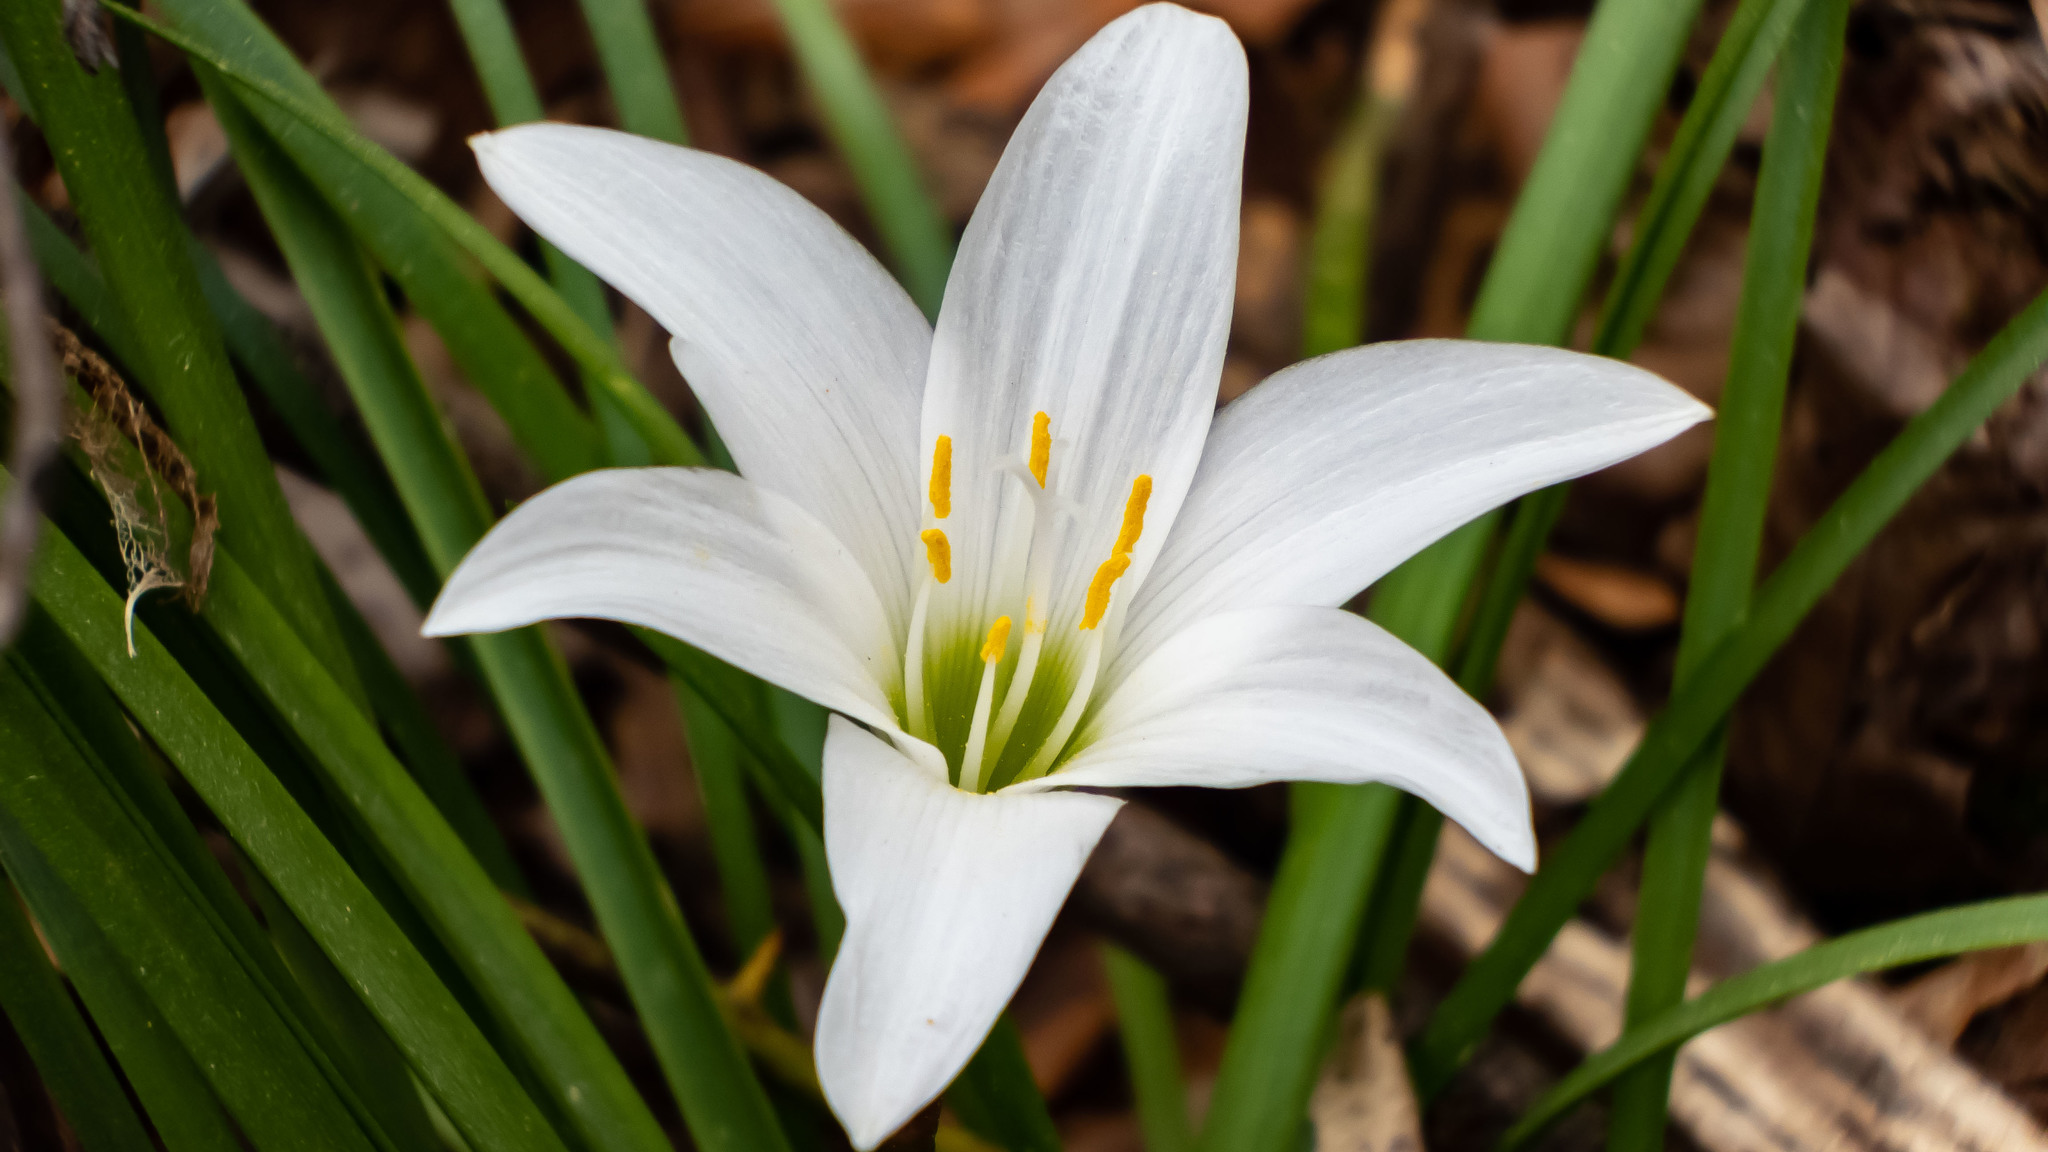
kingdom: Plantae
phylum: Tracheophyta
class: Liliopsida
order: Asparagales
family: Amaryllidaceae
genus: Zephyranthes
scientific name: Zephyranthes atamasco
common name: Atamasco lily
